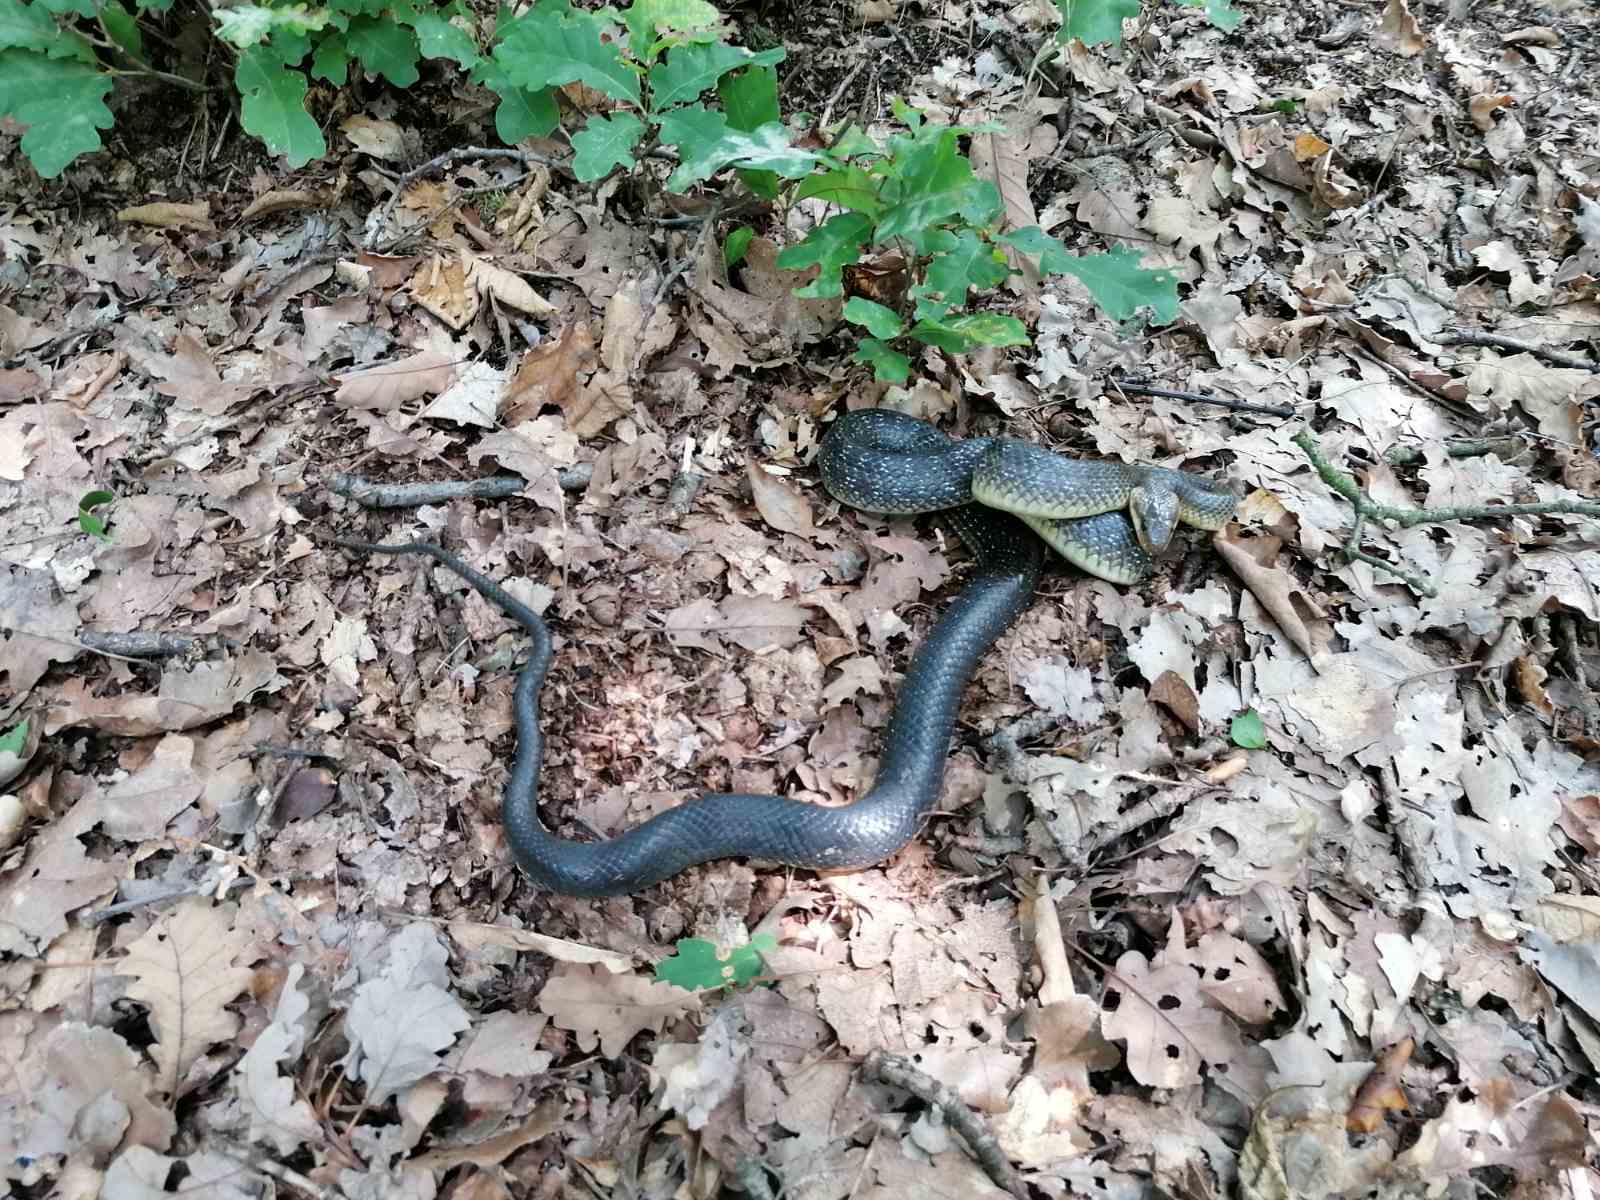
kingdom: Animalia
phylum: Chordata
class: Squamata
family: Colubridae
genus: Zamenis
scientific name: Zamenis longissimus
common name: Aesculapean snake
